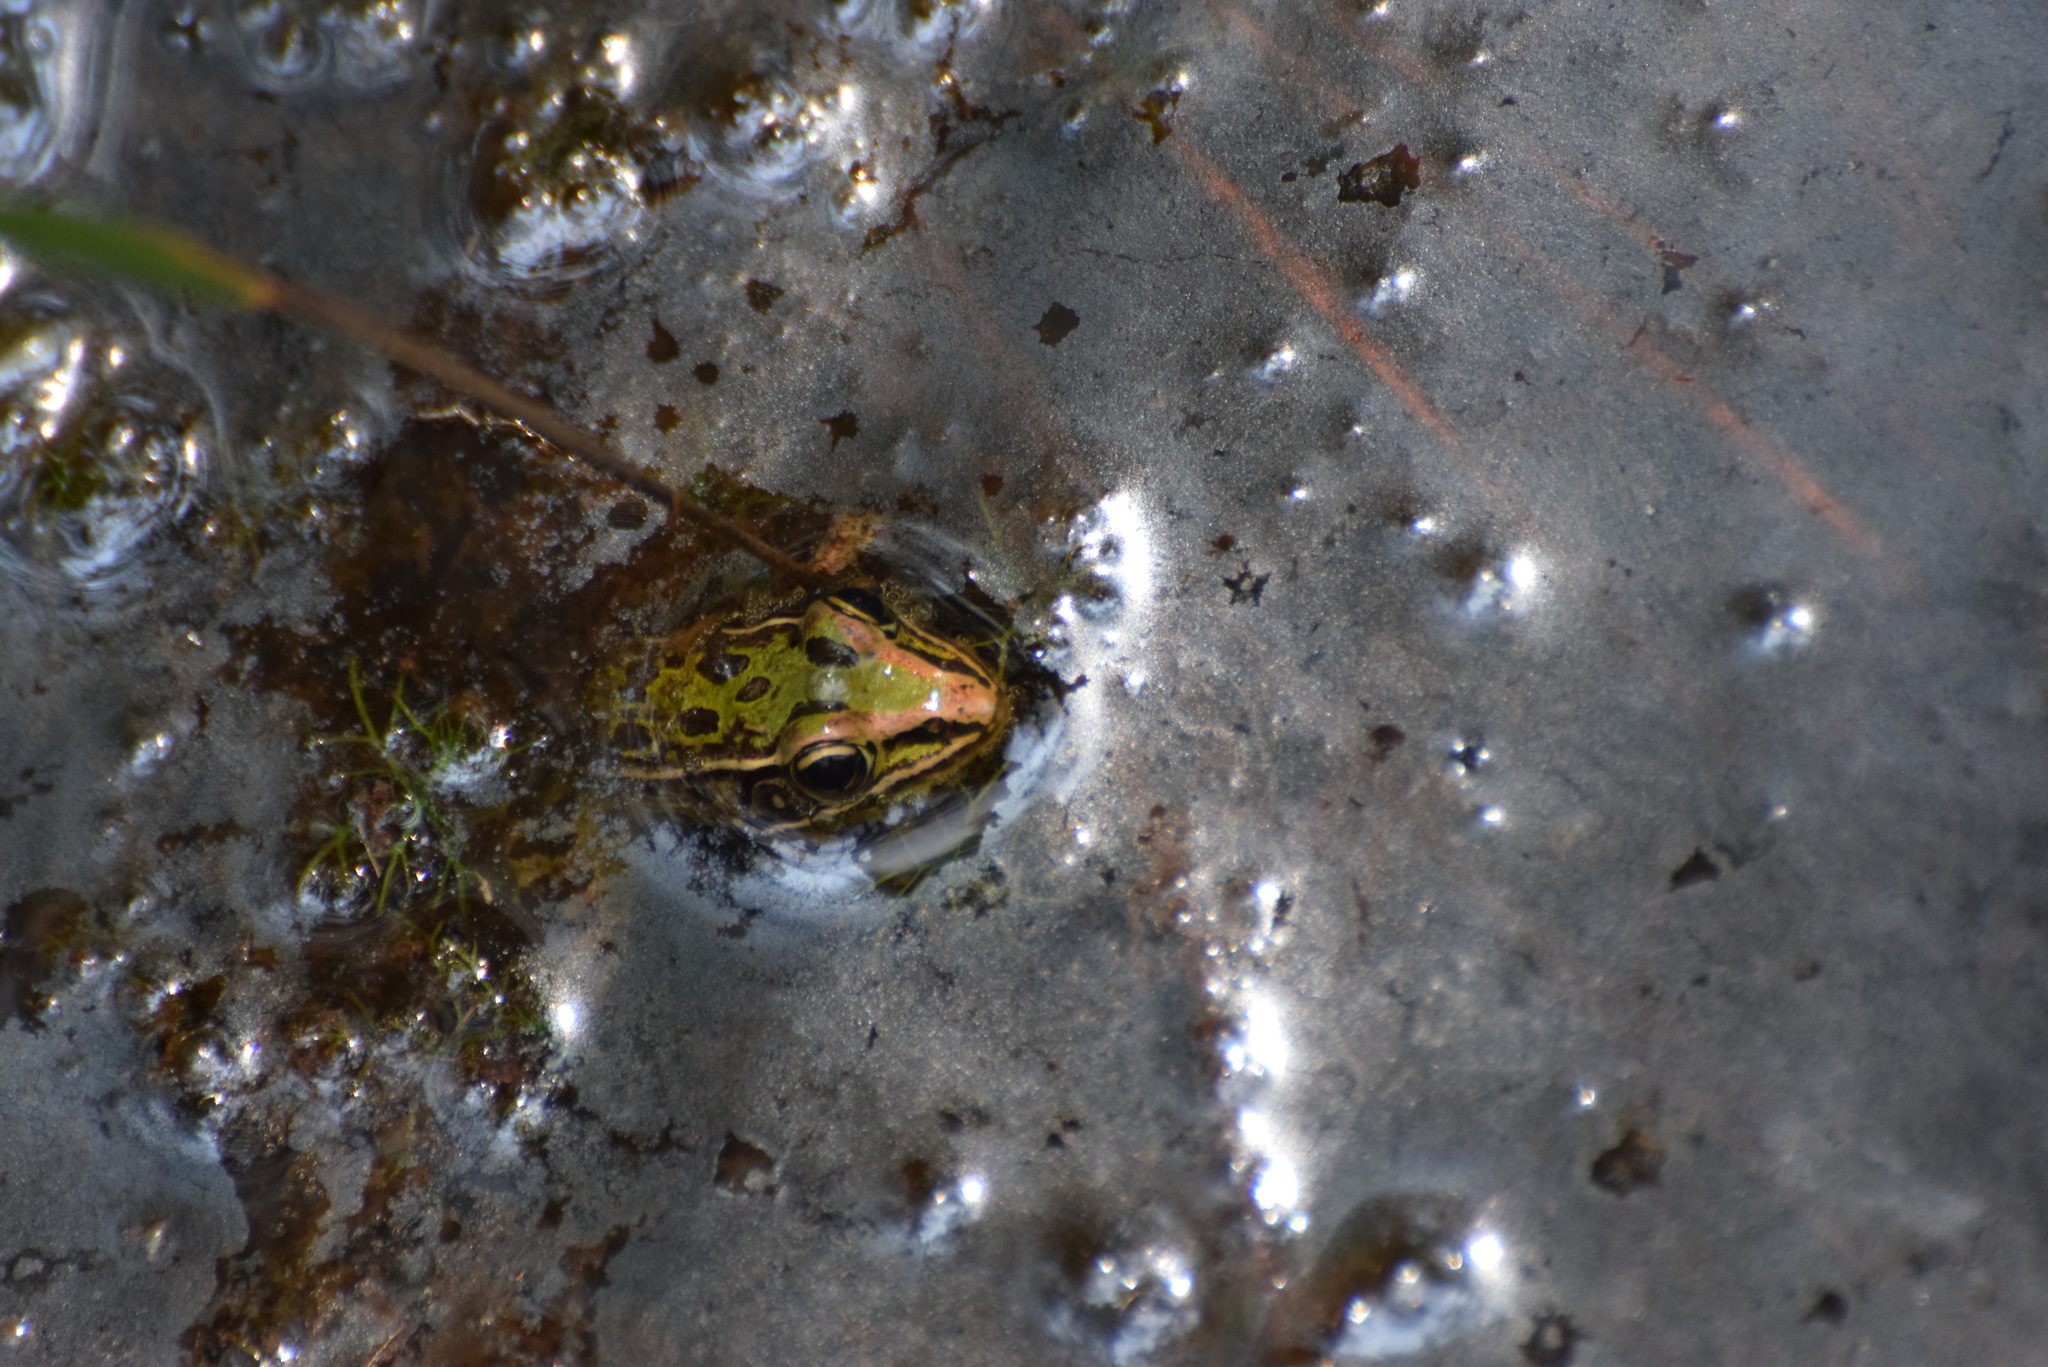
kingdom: Animalia
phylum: Chordata
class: Amphibia
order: Anura
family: Ranidae
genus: Lithobates
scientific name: Lithobates sphenocephalus
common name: Southern leopard frog
